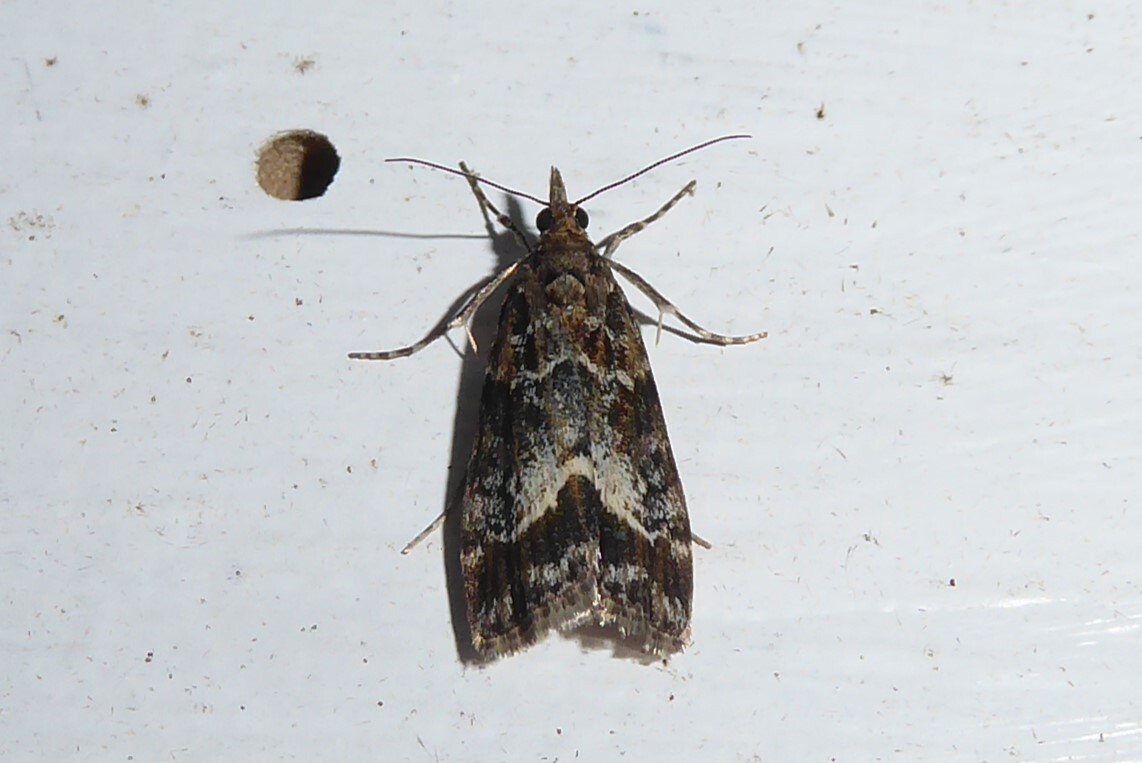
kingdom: Animalia
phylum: Arthropoda
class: Insecta
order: Lepidoptera
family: Crambidae
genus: Eudonia
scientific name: Eudonia legnota
